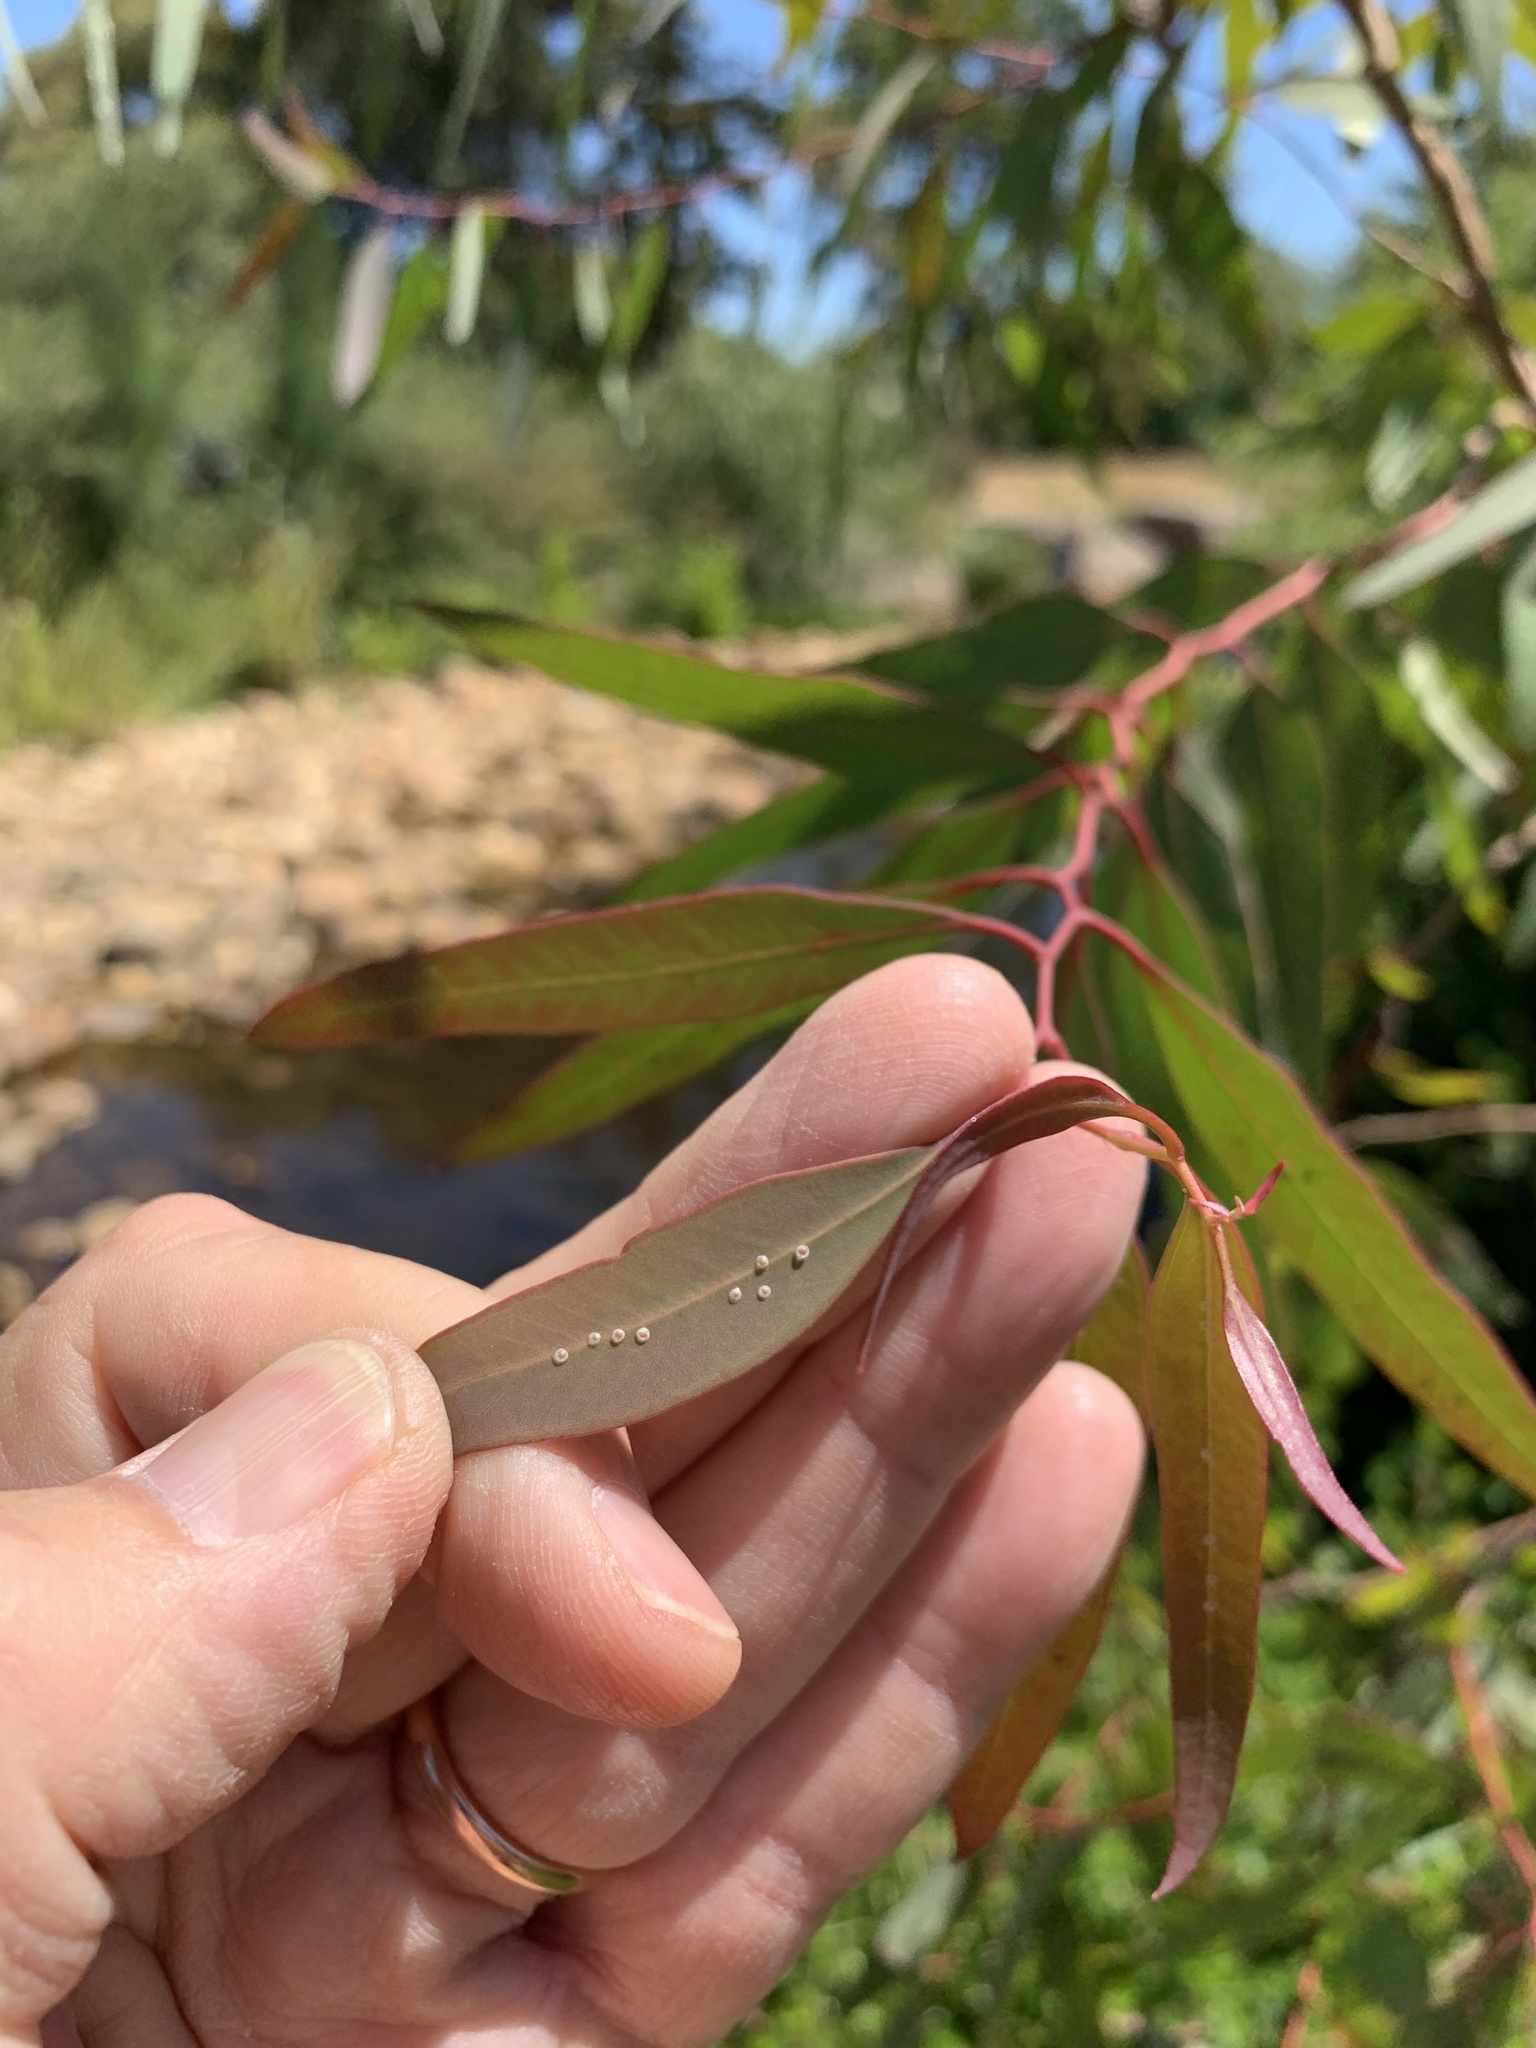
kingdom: Plantae
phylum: Tracheophyta
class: Magnoliopsida
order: Myrtales
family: Myrtaceae
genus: Eucalyptus
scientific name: Eucalyptus camaldulensis
